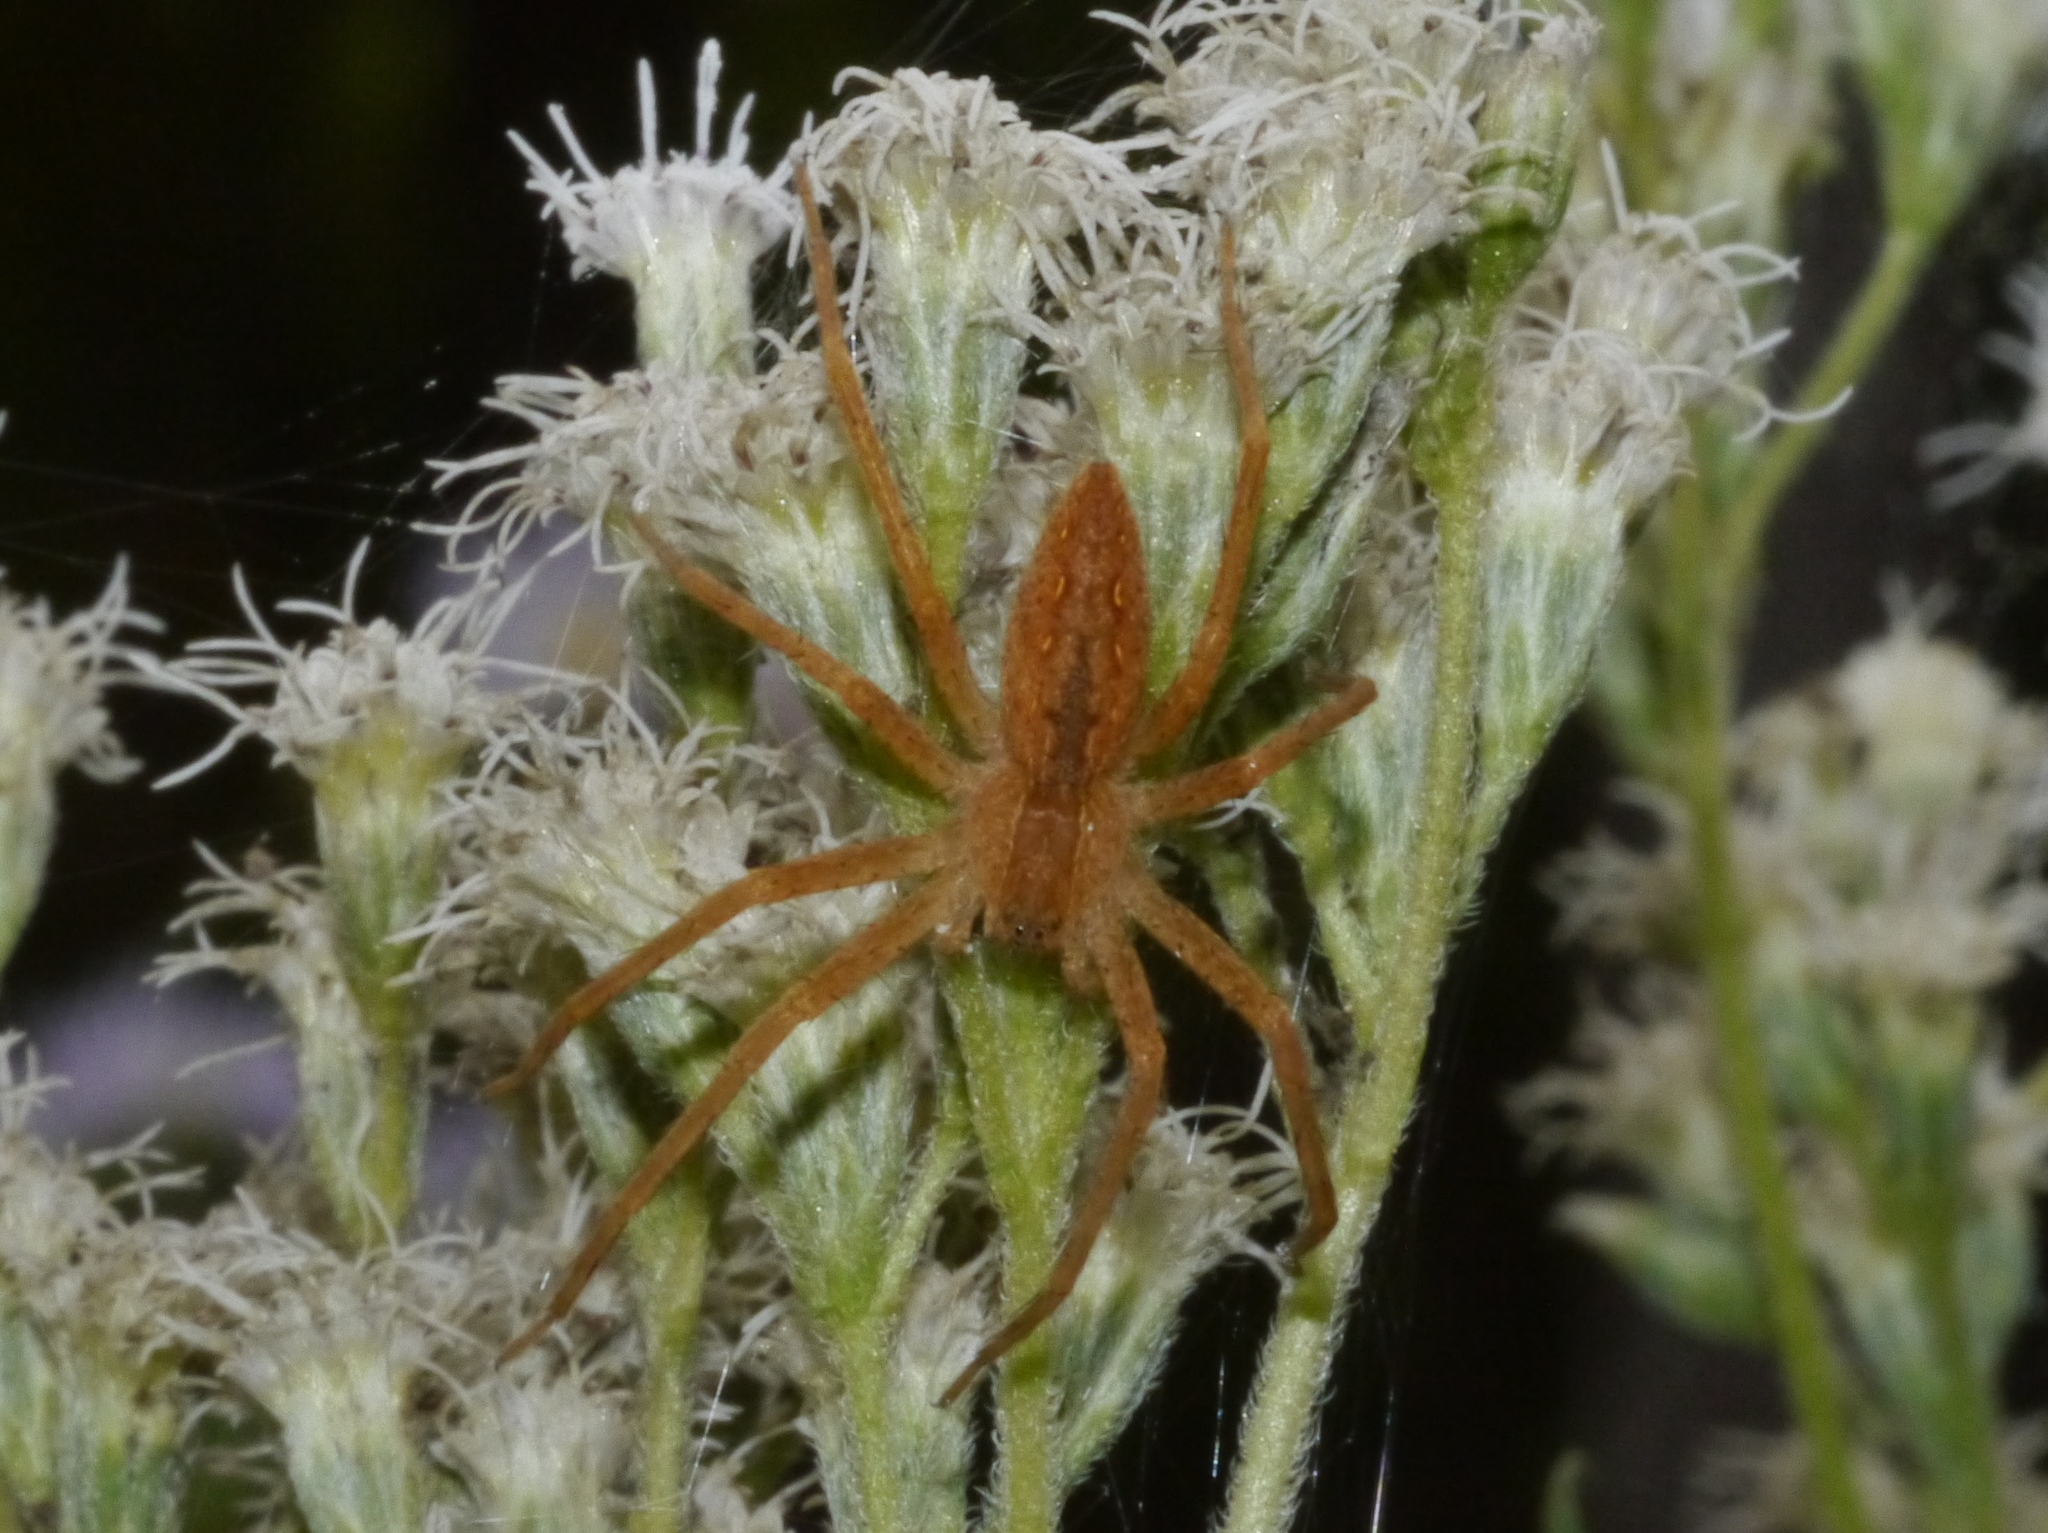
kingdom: Animalia
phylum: Arthropoda
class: Arachnida
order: Araneae
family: Pisauridae
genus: Pisaurina
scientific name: Pisaurina mira
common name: American nursery web spider
